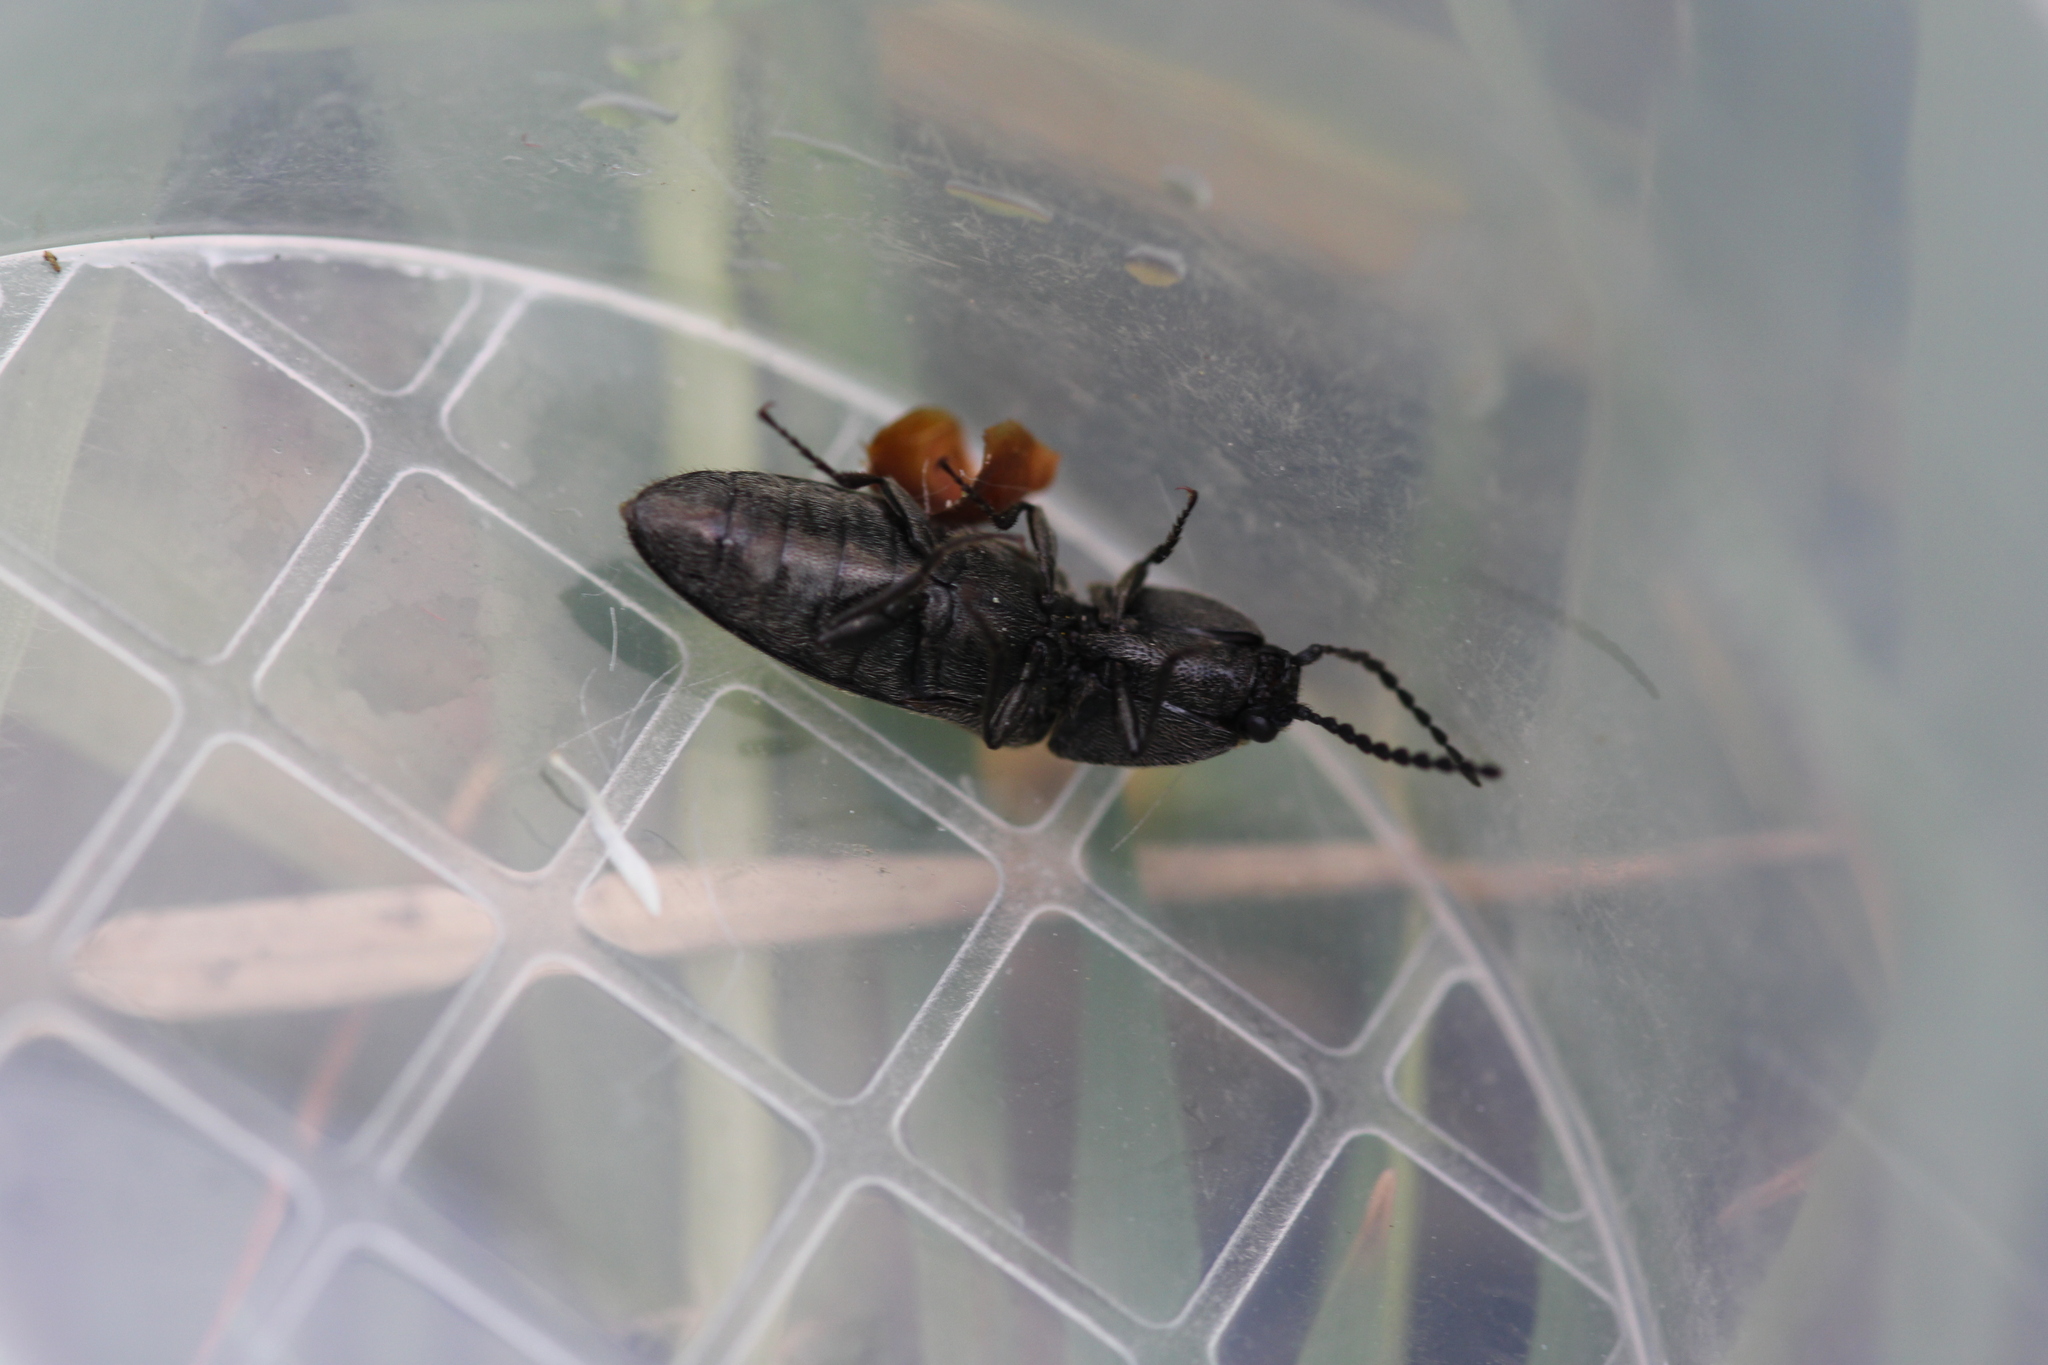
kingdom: Animalia
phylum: Arthropoda
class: Insecta
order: Coleoptera
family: Elateridae
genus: Cidnopus
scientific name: Cidnopus pilosus
